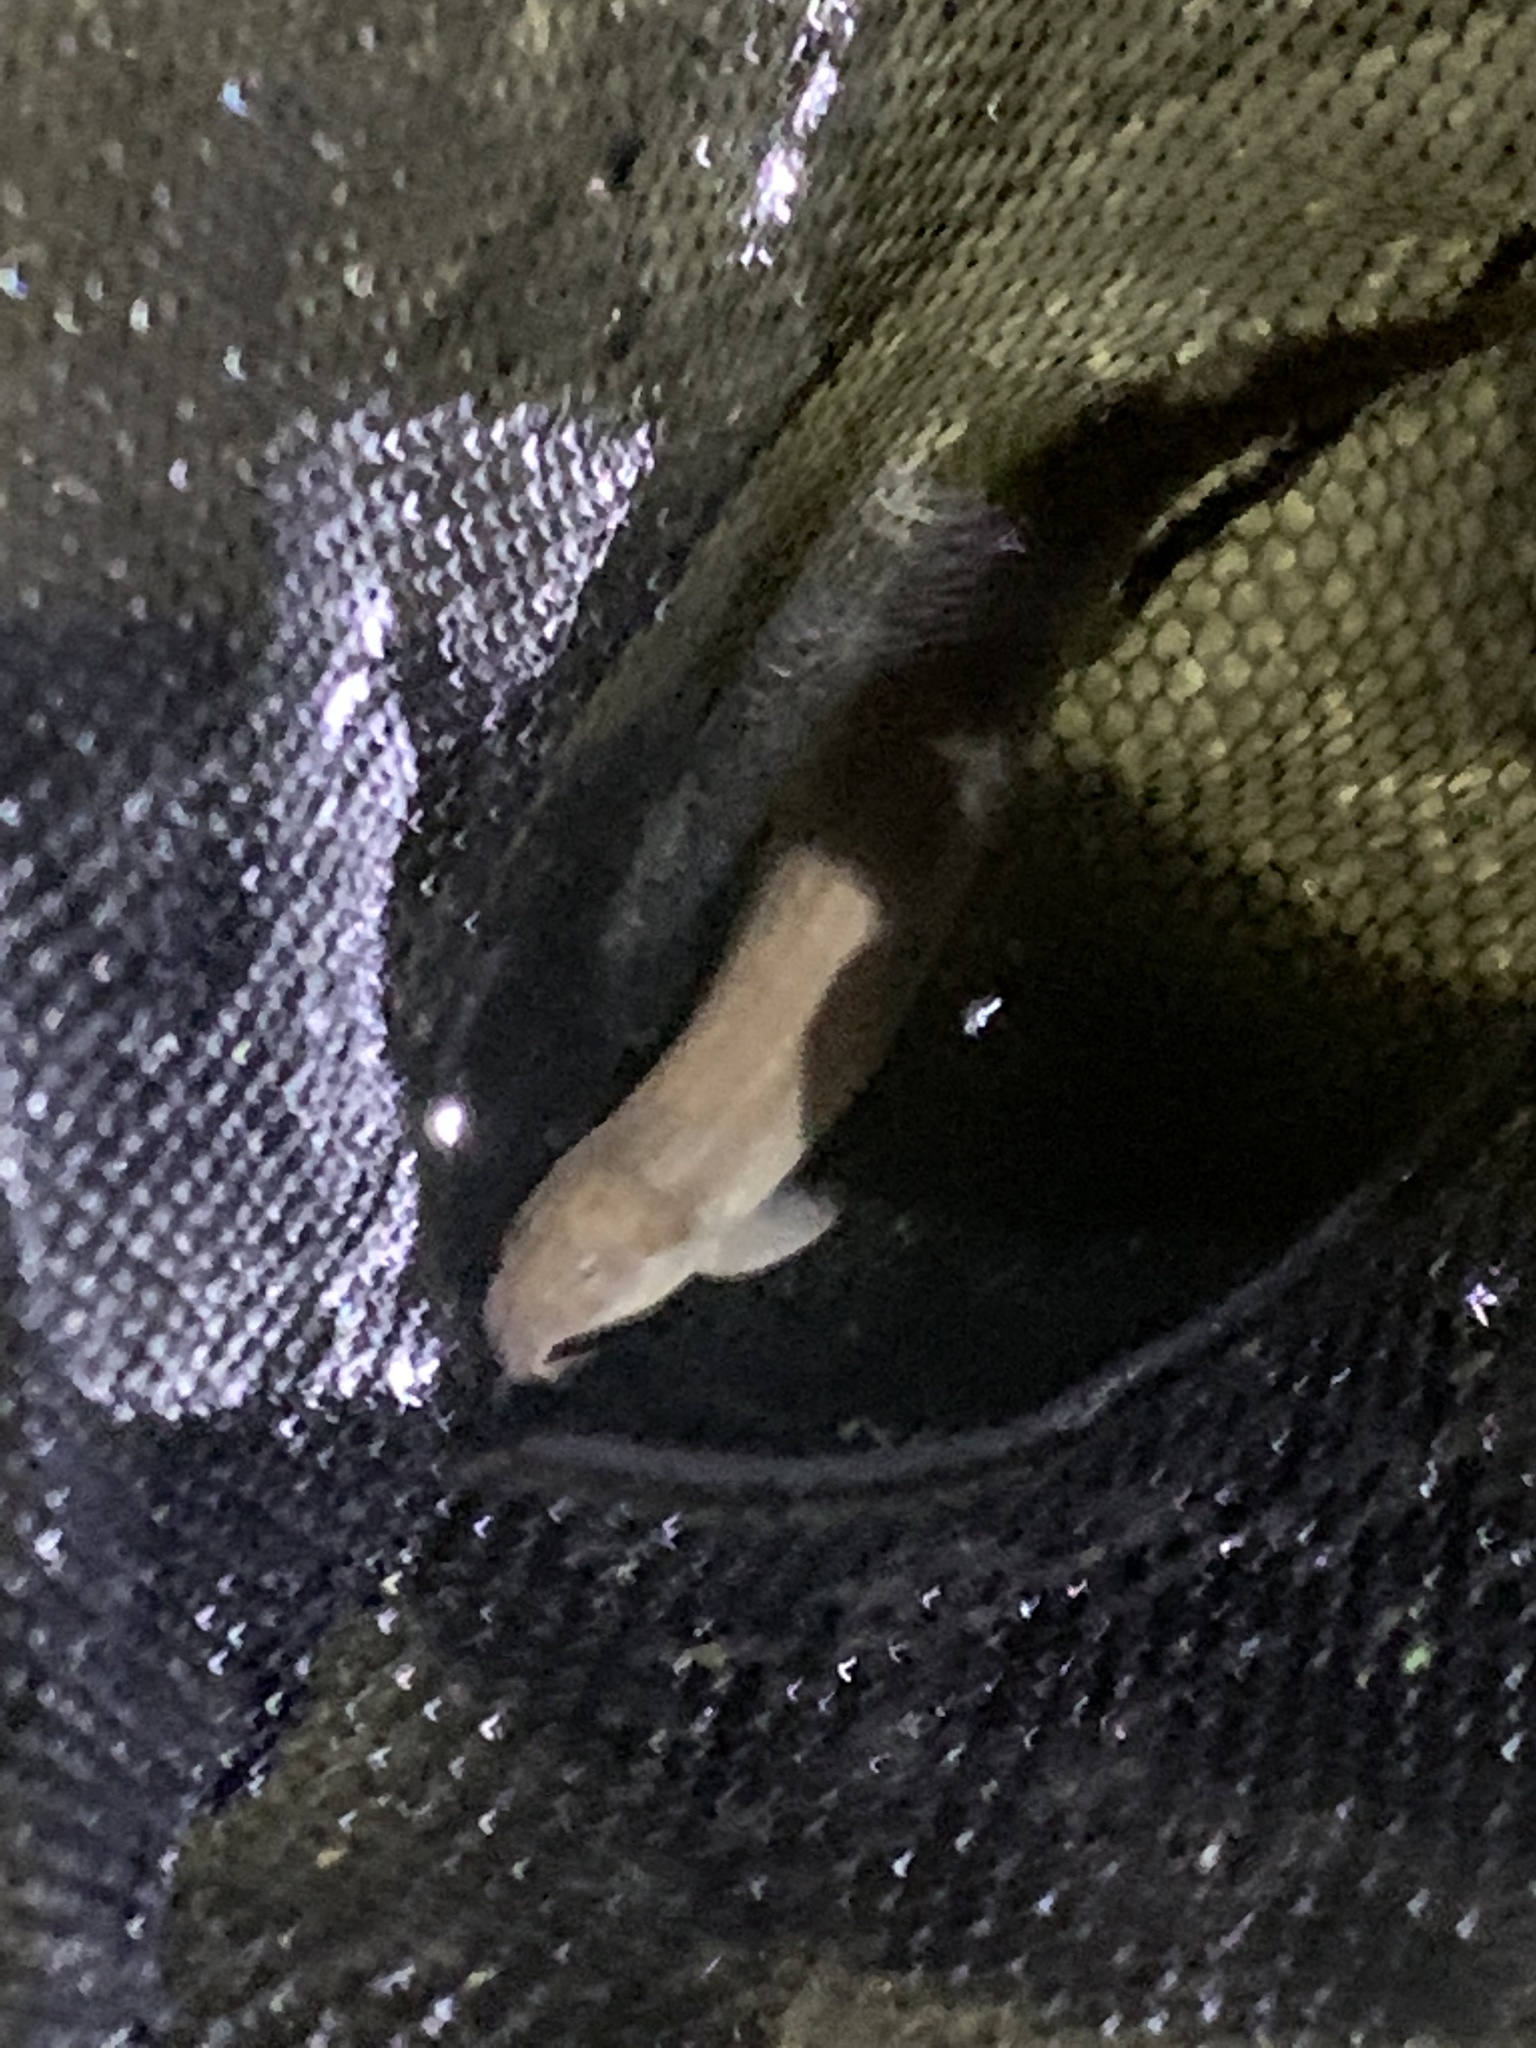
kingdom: Animalia
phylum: Chordata
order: Cypriniformes
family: Cobitidae
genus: Misgurnus
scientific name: Misgurnus anguillicaudatus
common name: Oriental weatherfish
